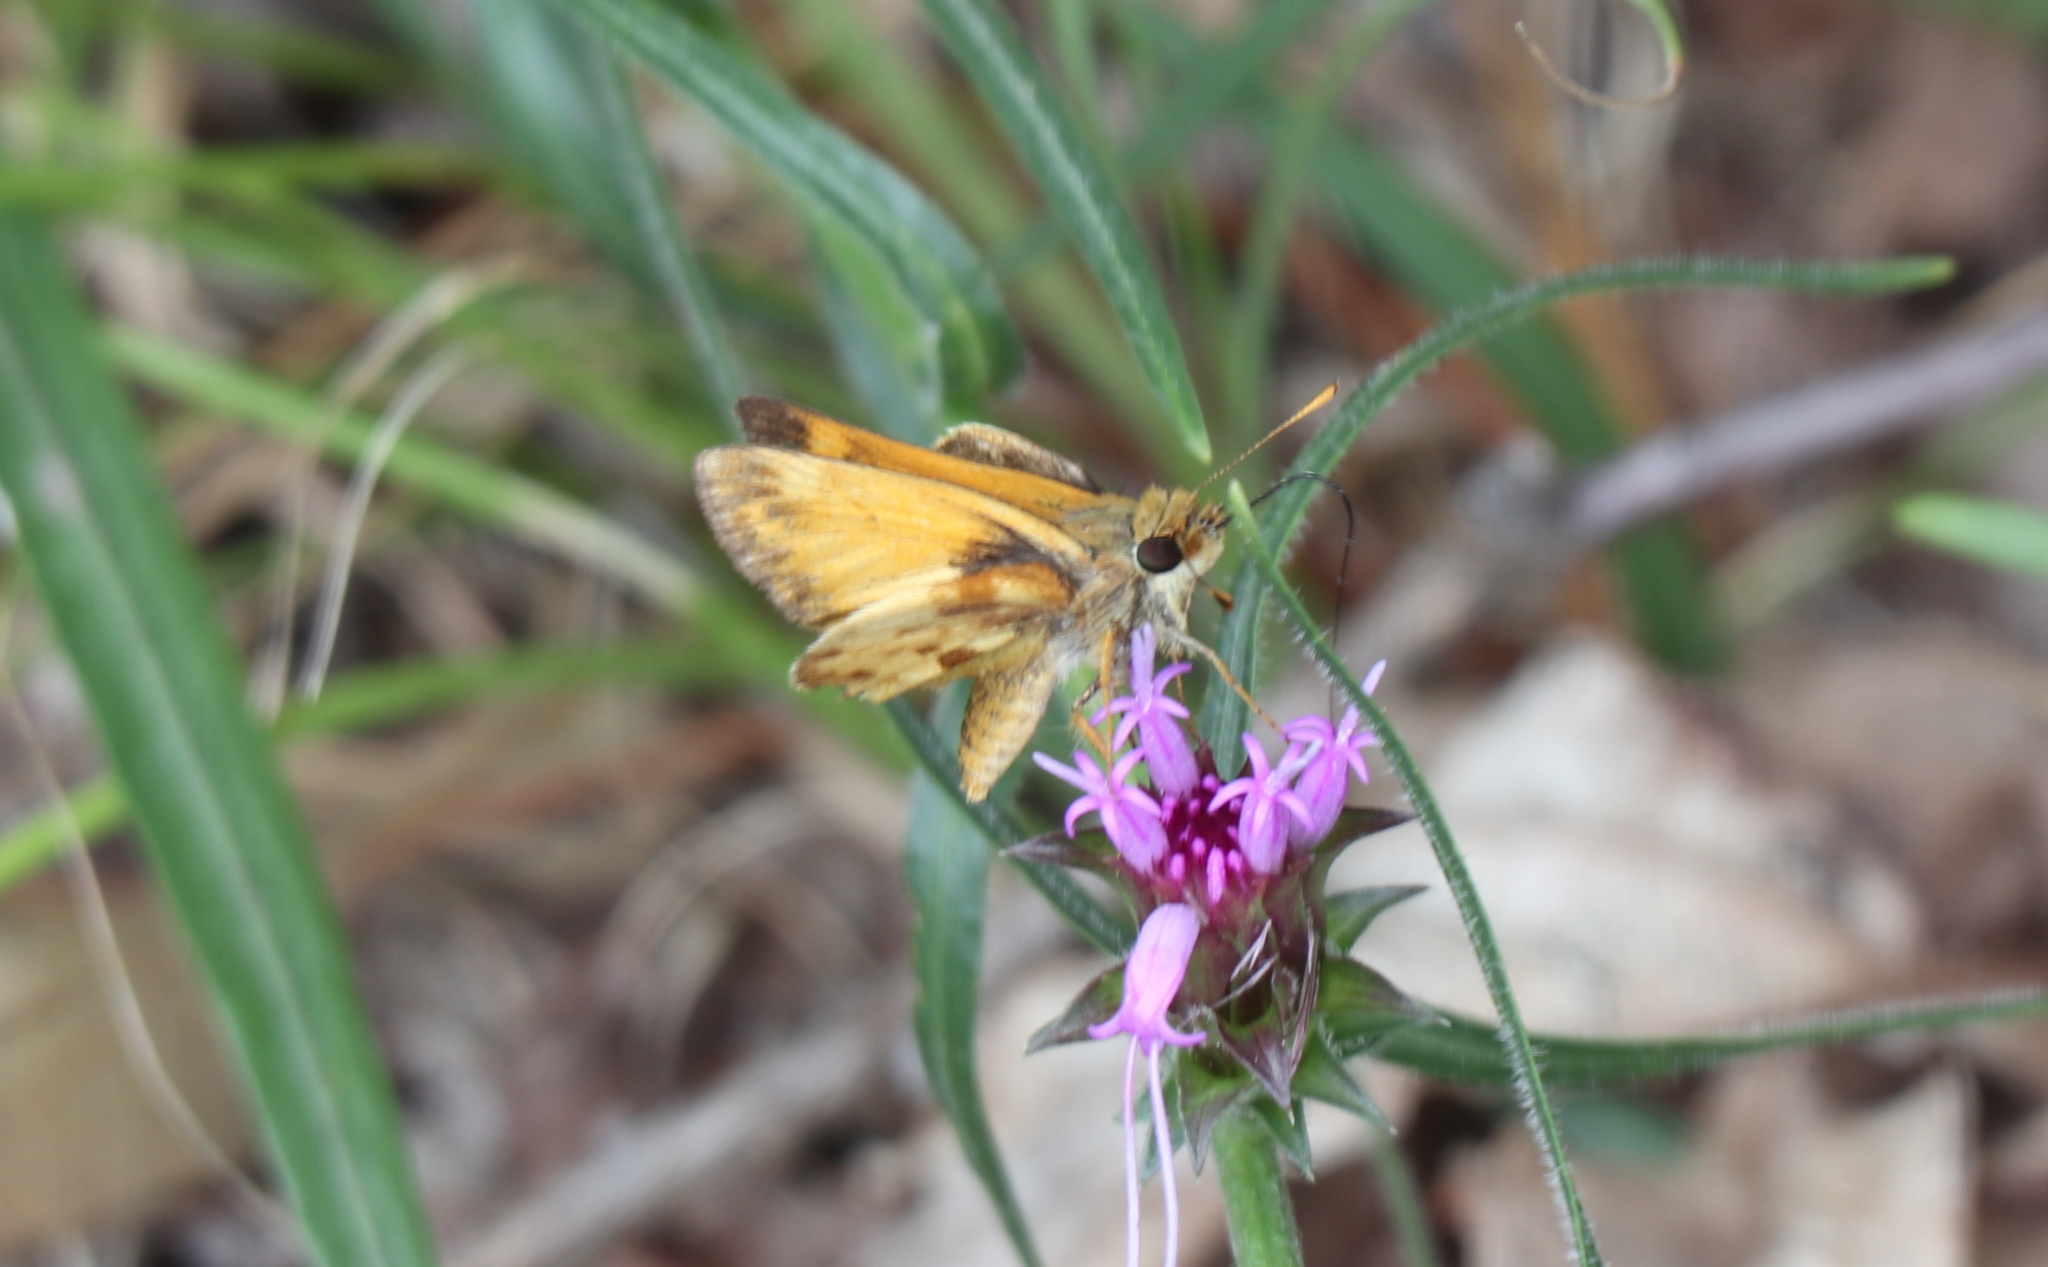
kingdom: Animalia
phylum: Arthropoda
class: Insecta
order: Lepidoptera
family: Hesperiidae
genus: Lon
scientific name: Lon zabulon
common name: Zabulon skipper
